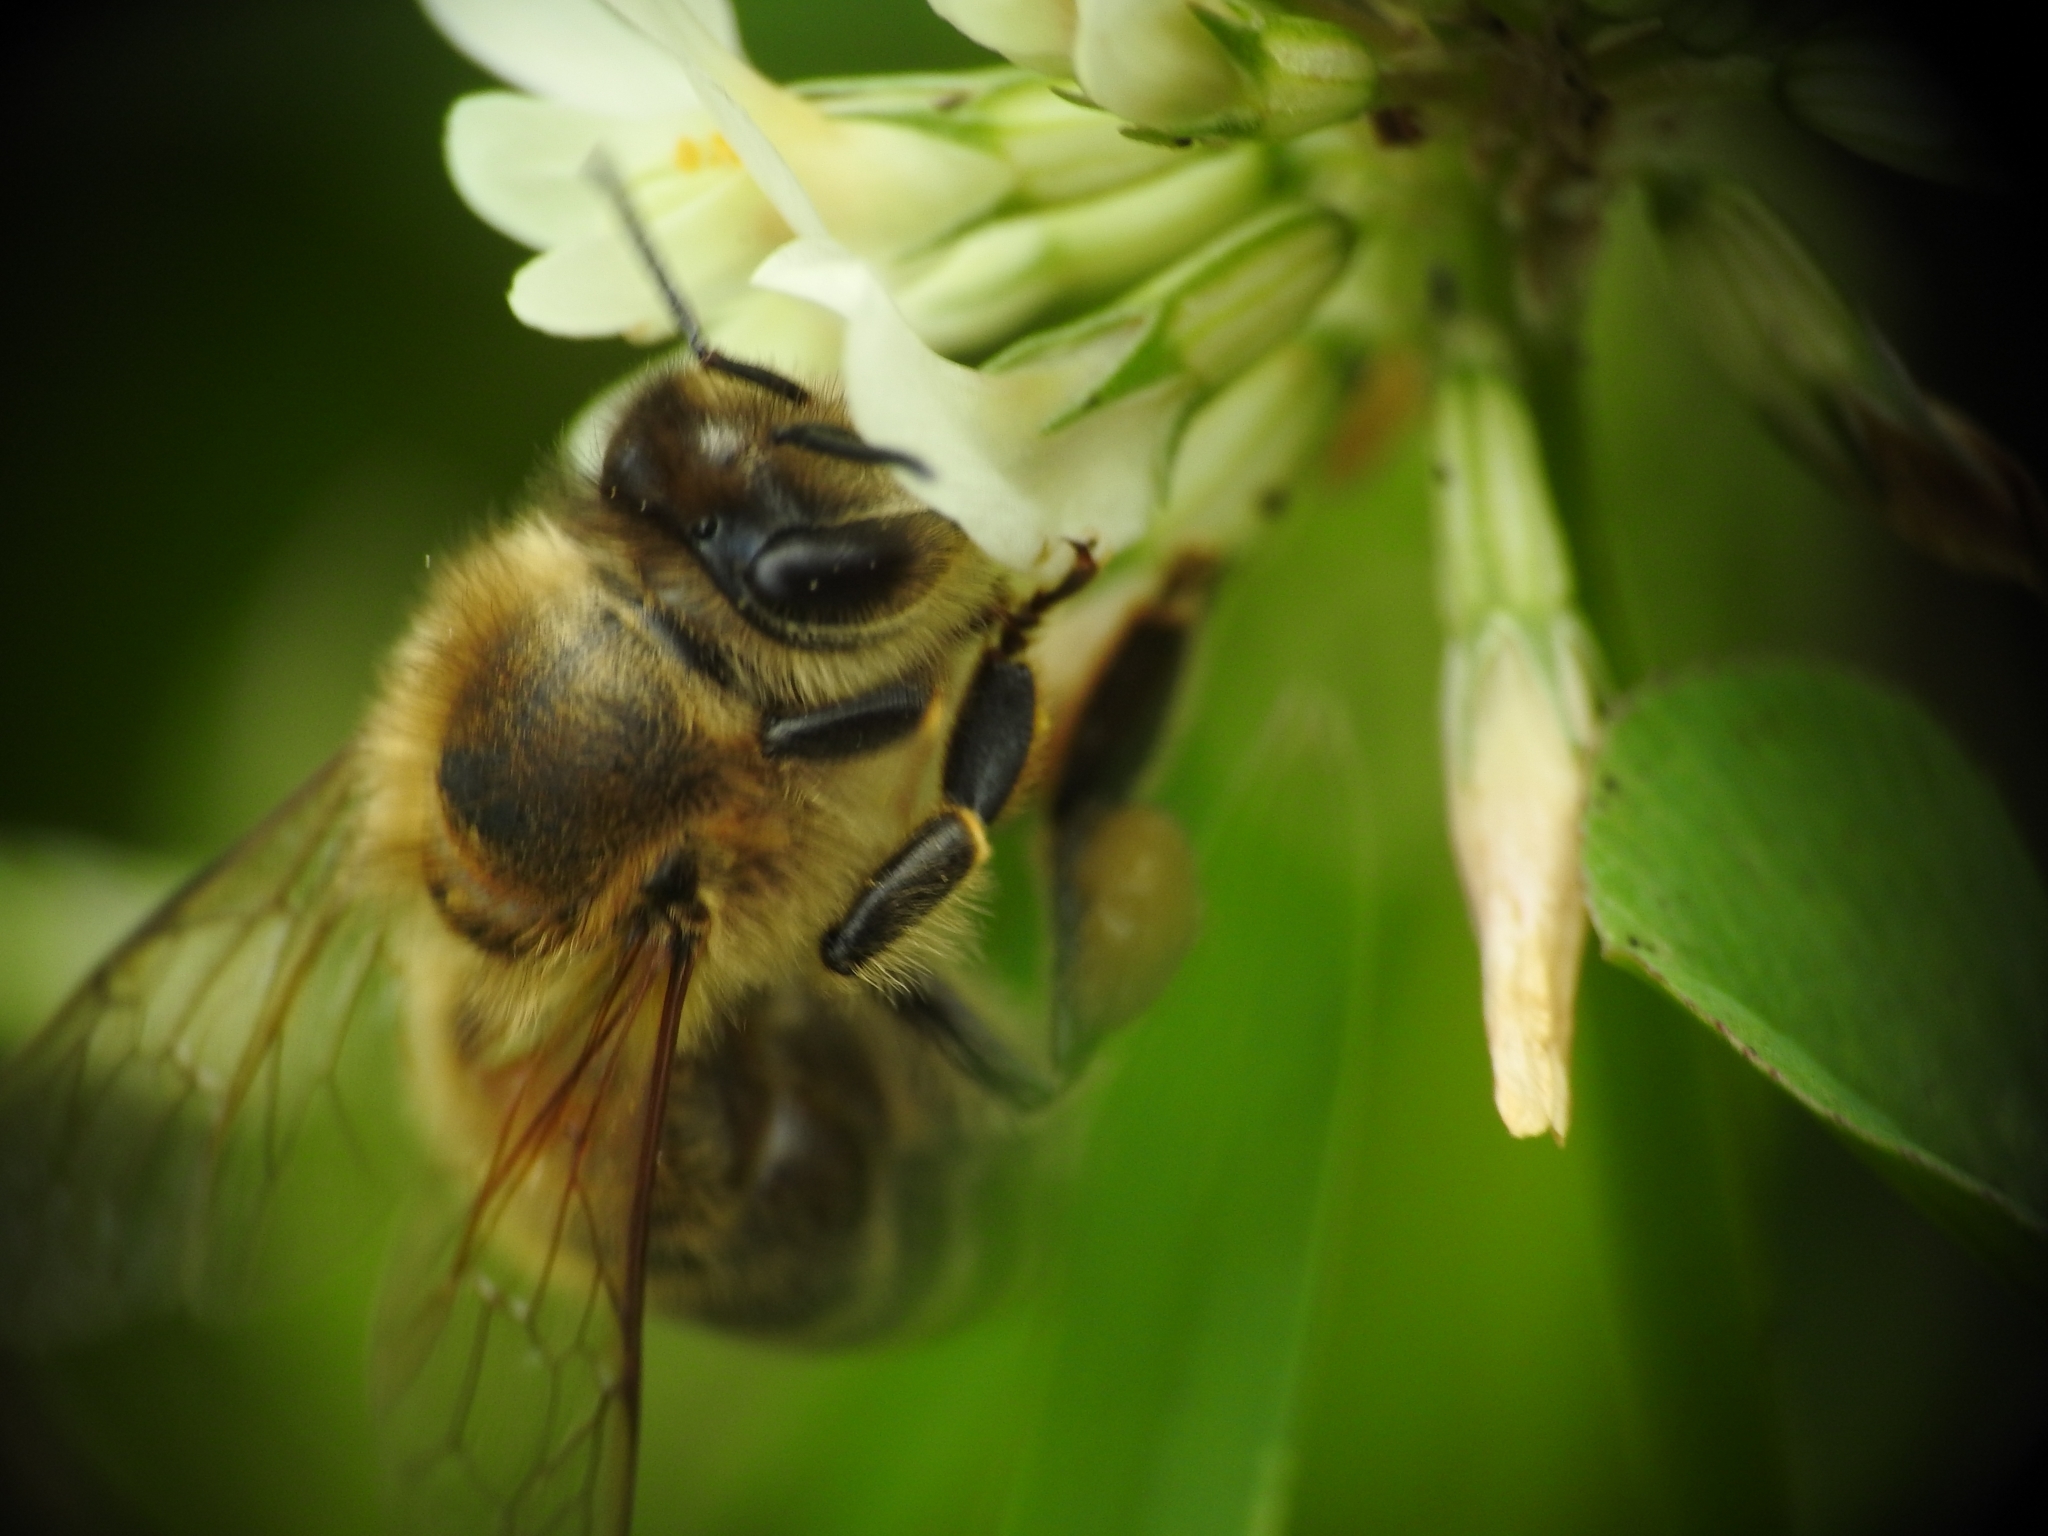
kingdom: Animalia
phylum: Arthropoda
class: Insecta
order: Hymenoptera
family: Apidae
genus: Apis
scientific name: Apis mellifera
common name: Honey bee
